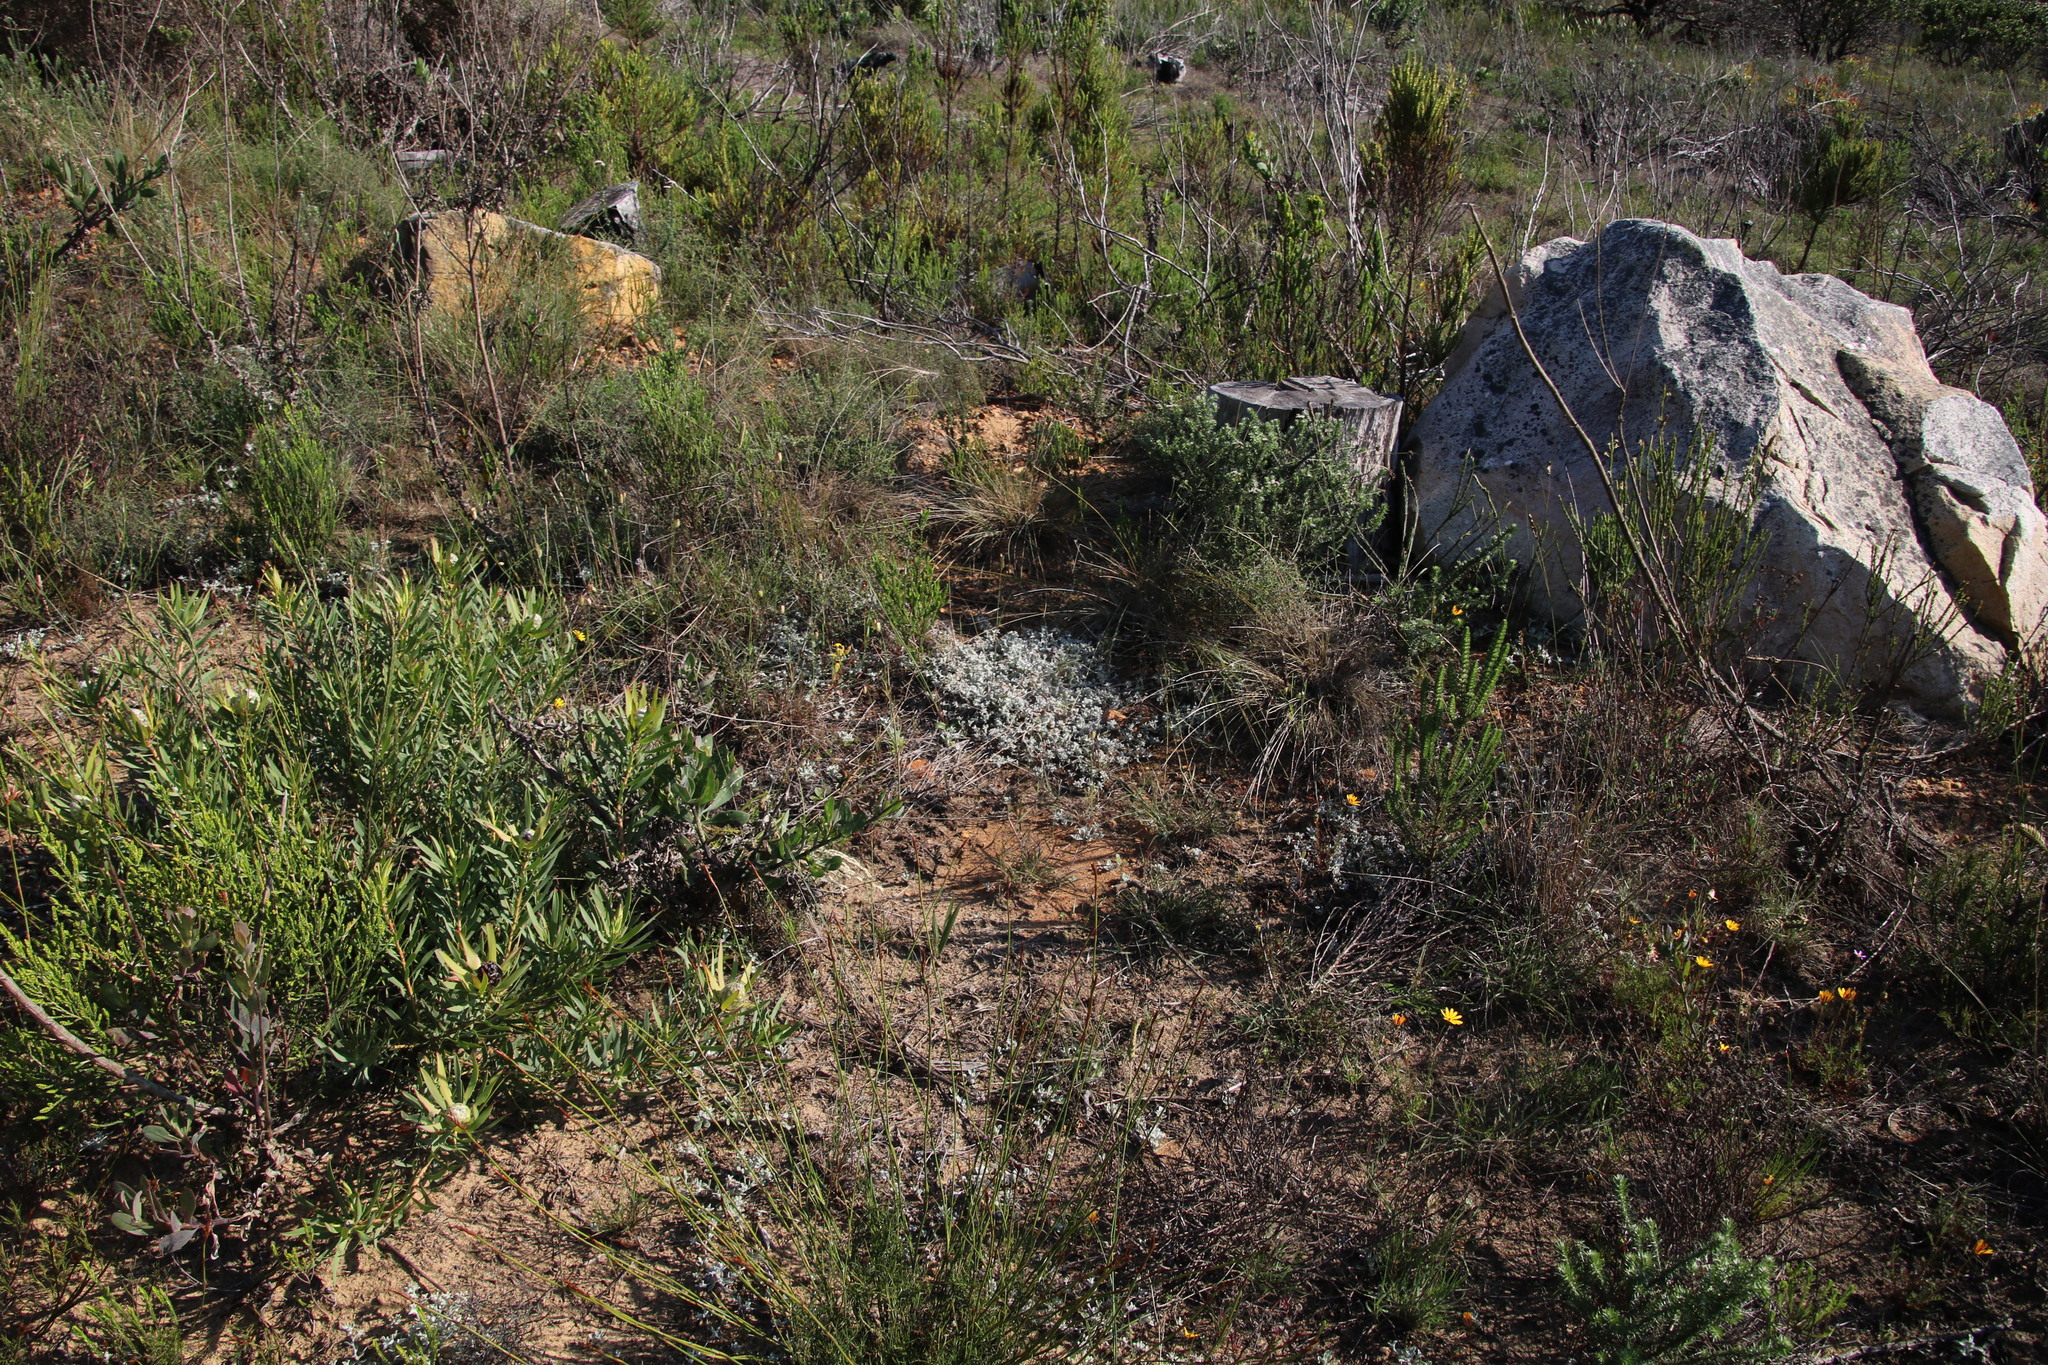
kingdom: Plantae
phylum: Tracheophyta
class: Magnoliopsida
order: Asterales
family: Asteraceae
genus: Helichrysum
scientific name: Helichrysum tinctum
